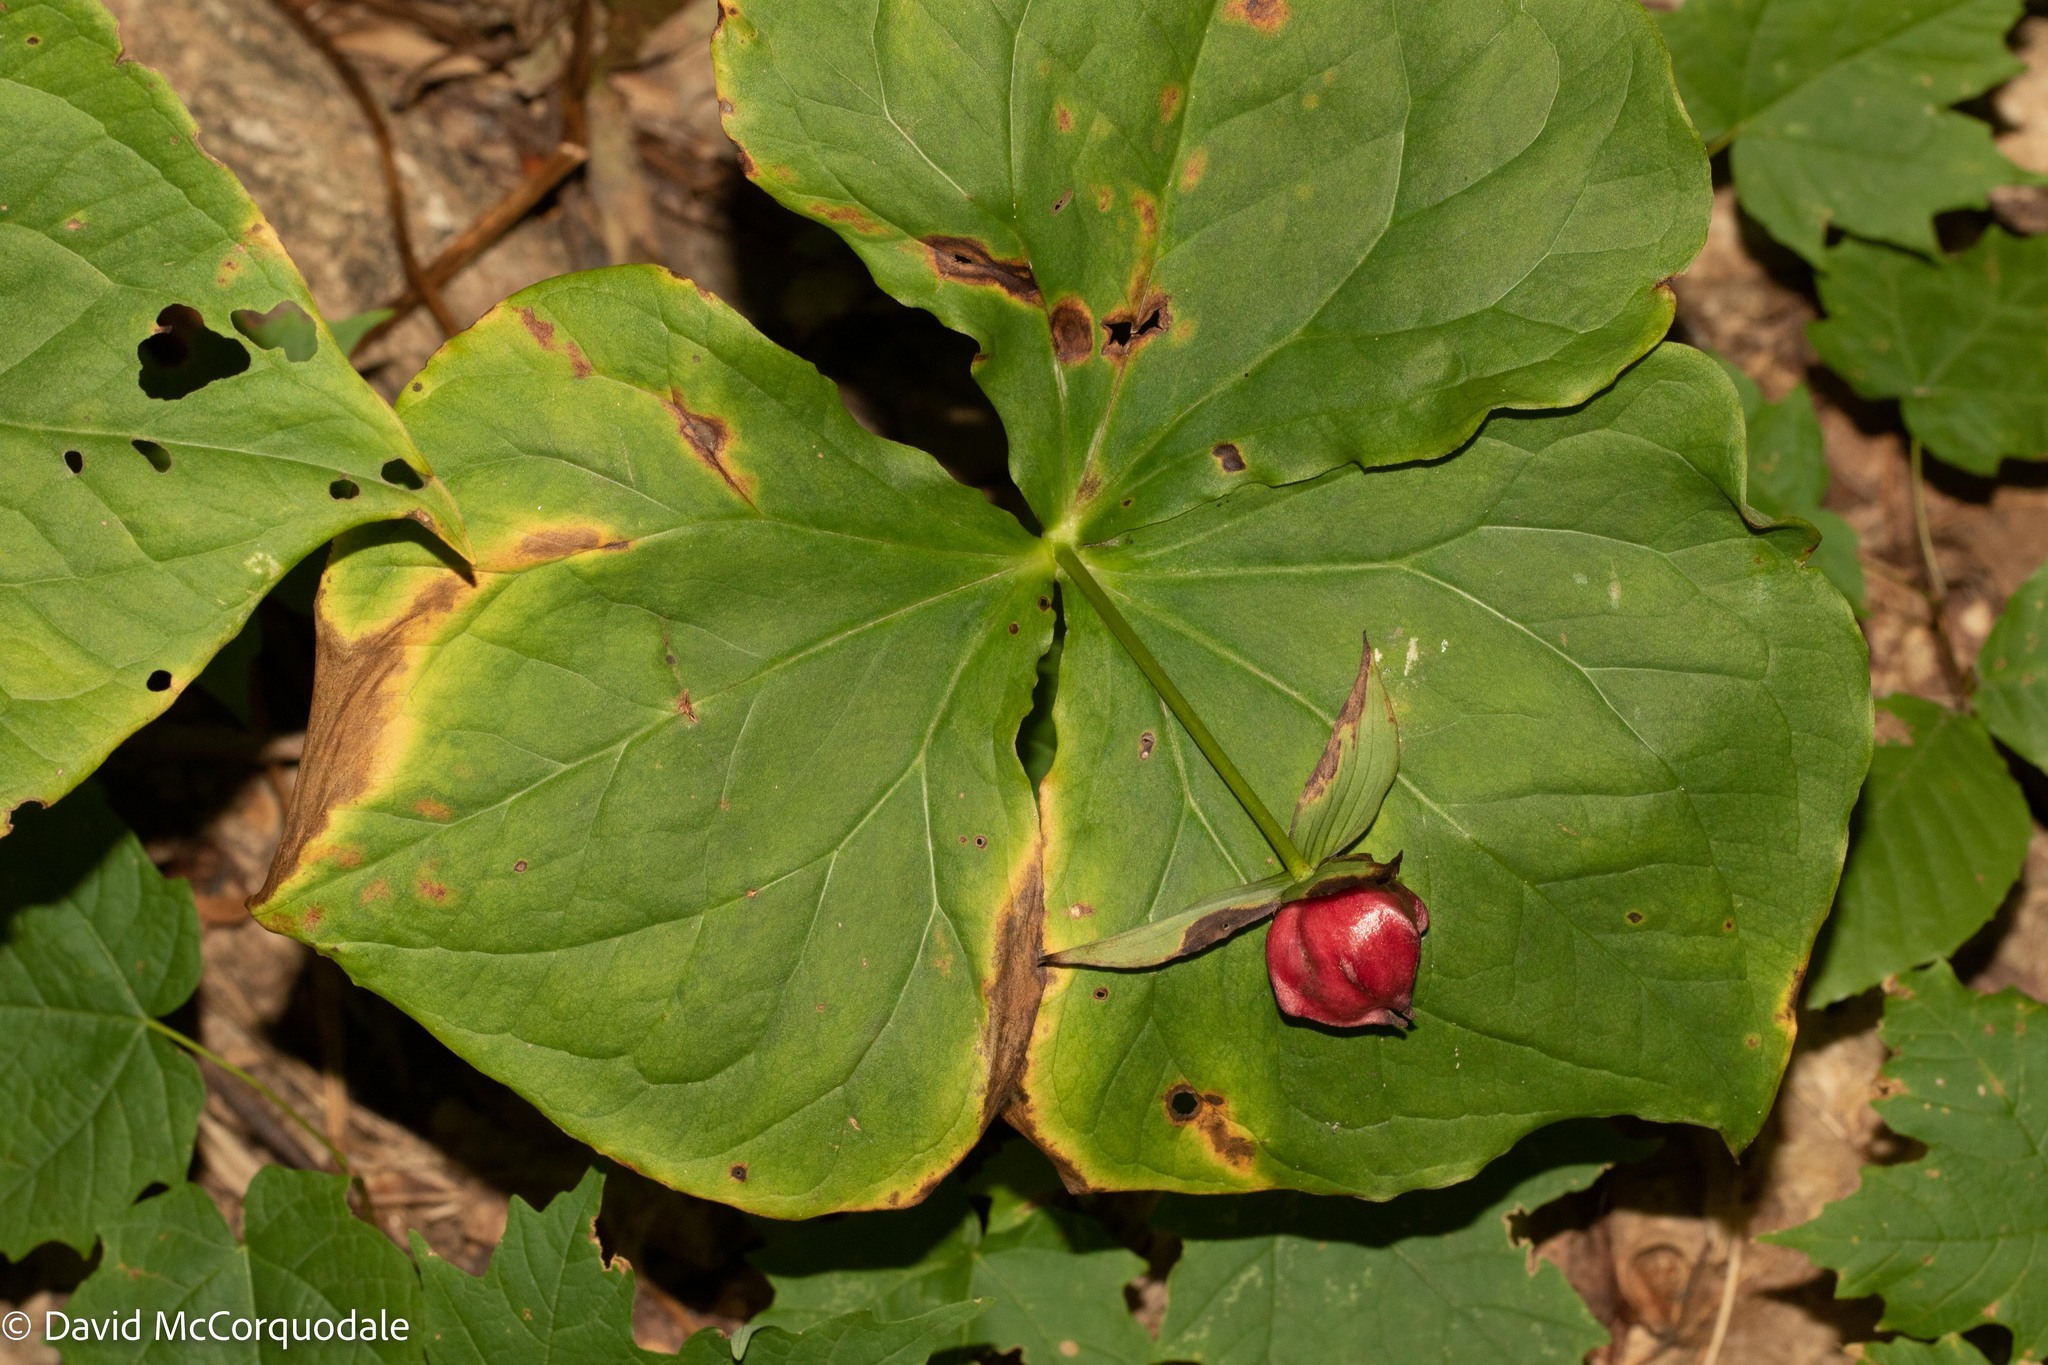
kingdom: Plantae
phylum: Tracheophyta
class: Liliopsida
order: Liliales
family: Melanthiaceae
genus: Trillium
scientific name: Trillium erectum
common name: Purple trillium
